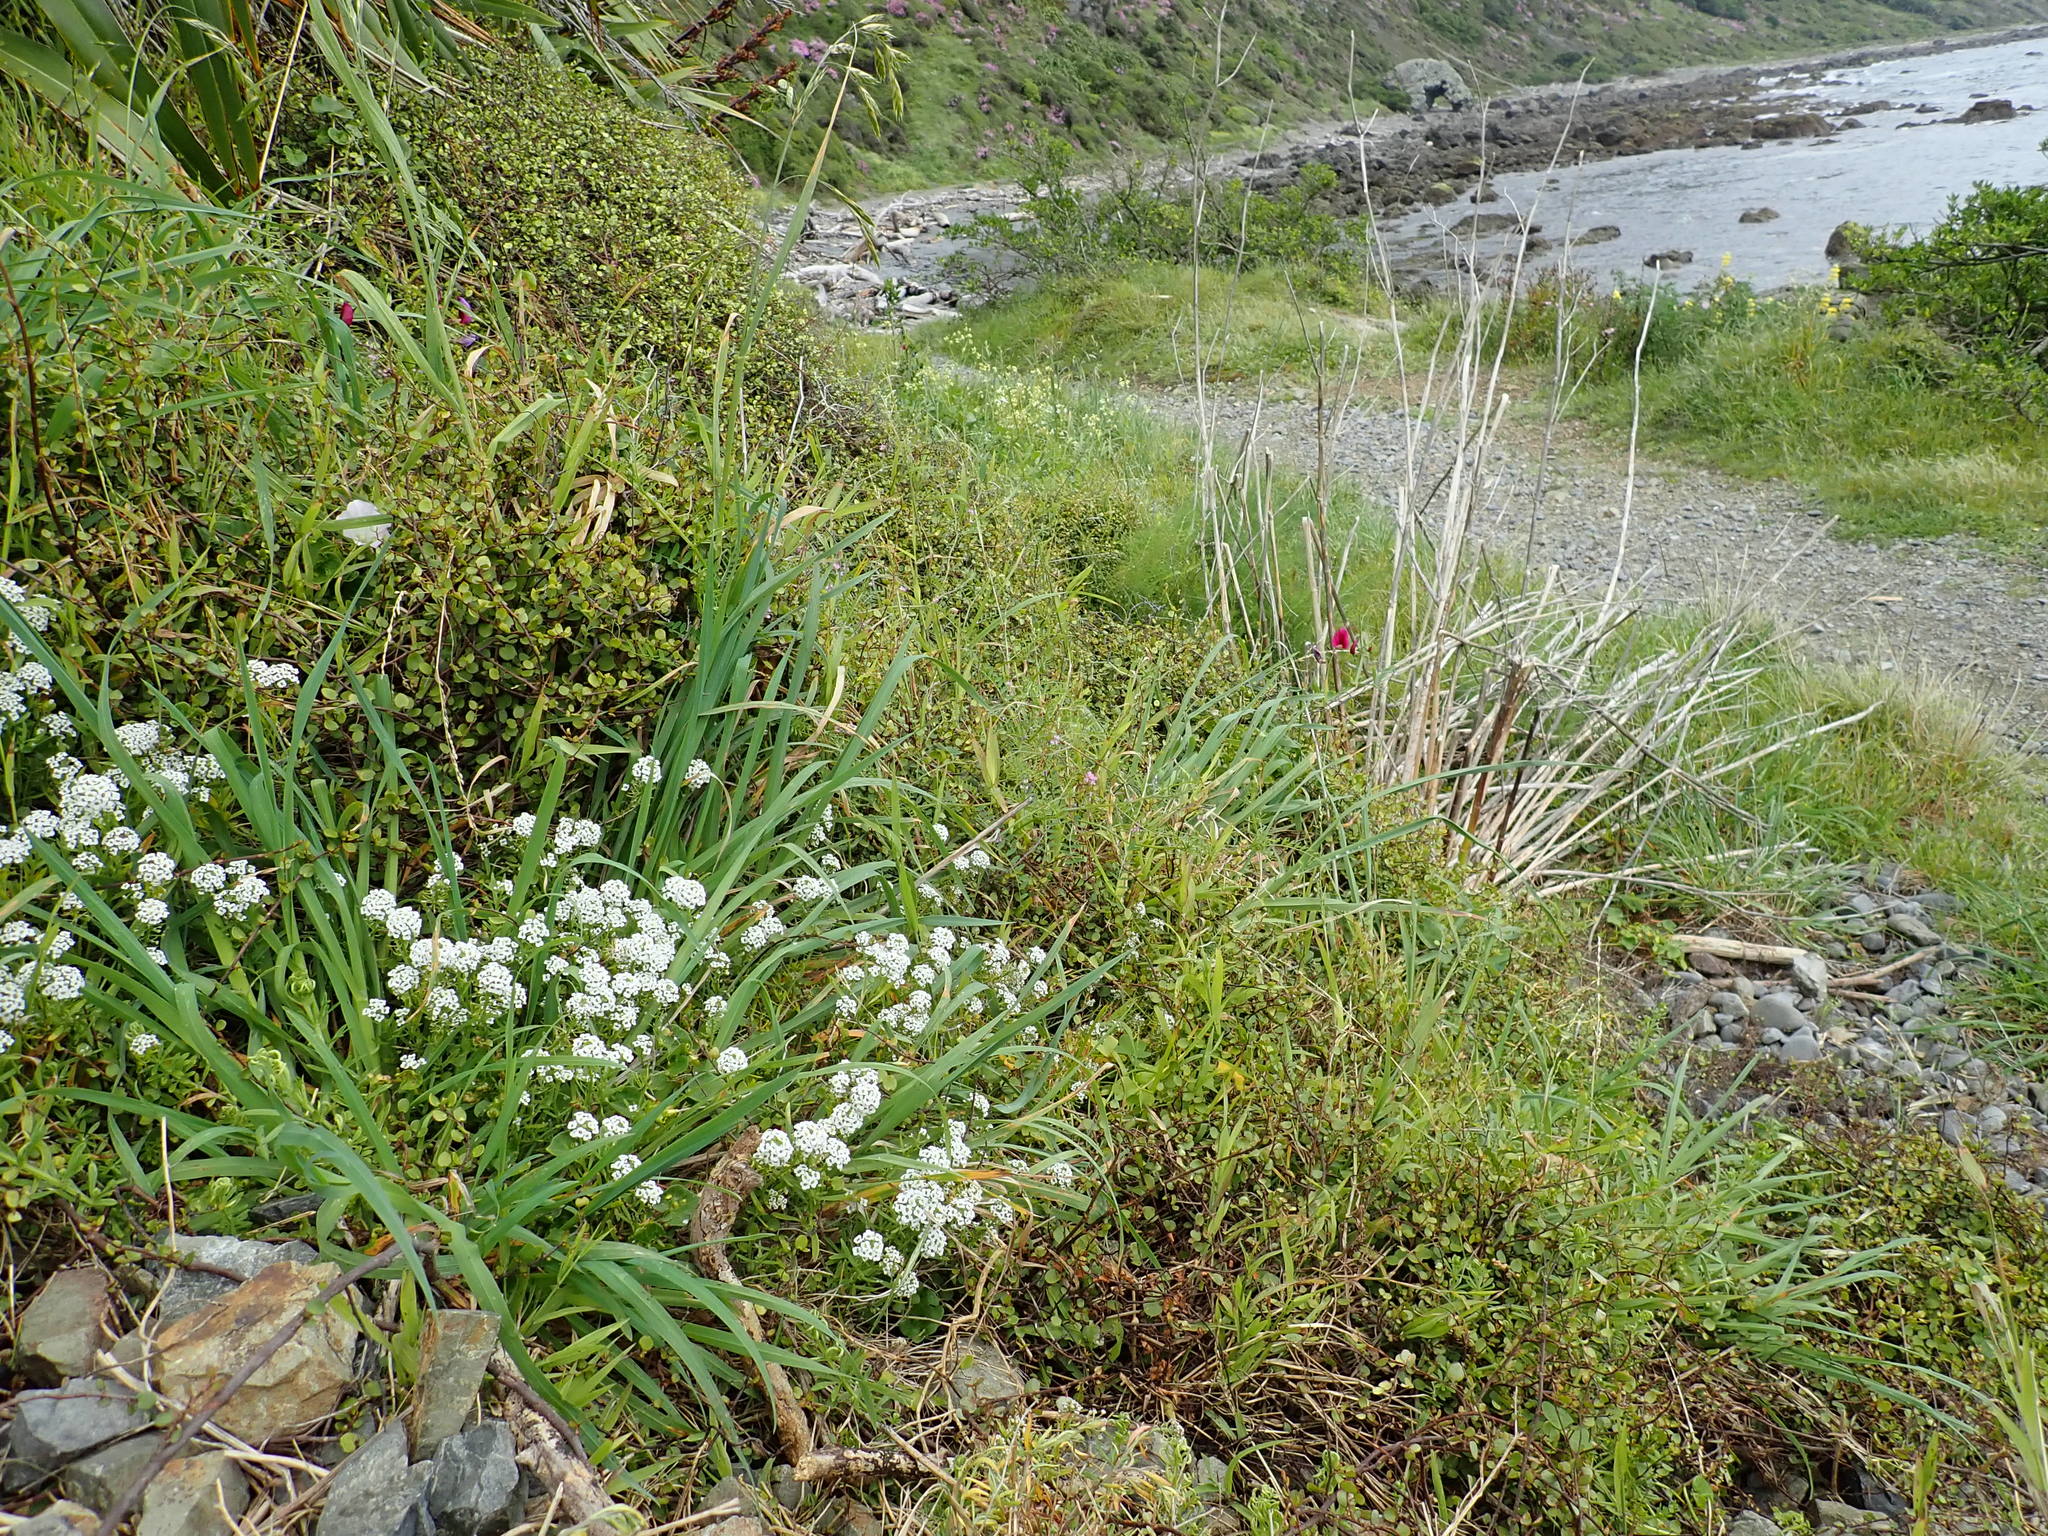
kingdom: Plantae
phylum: Tracheophyta
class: Magnoliopsida
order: Brassicales
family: Brassicaceae
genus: Lobularia
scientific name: Lobularia maritima
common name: Sweet alison
